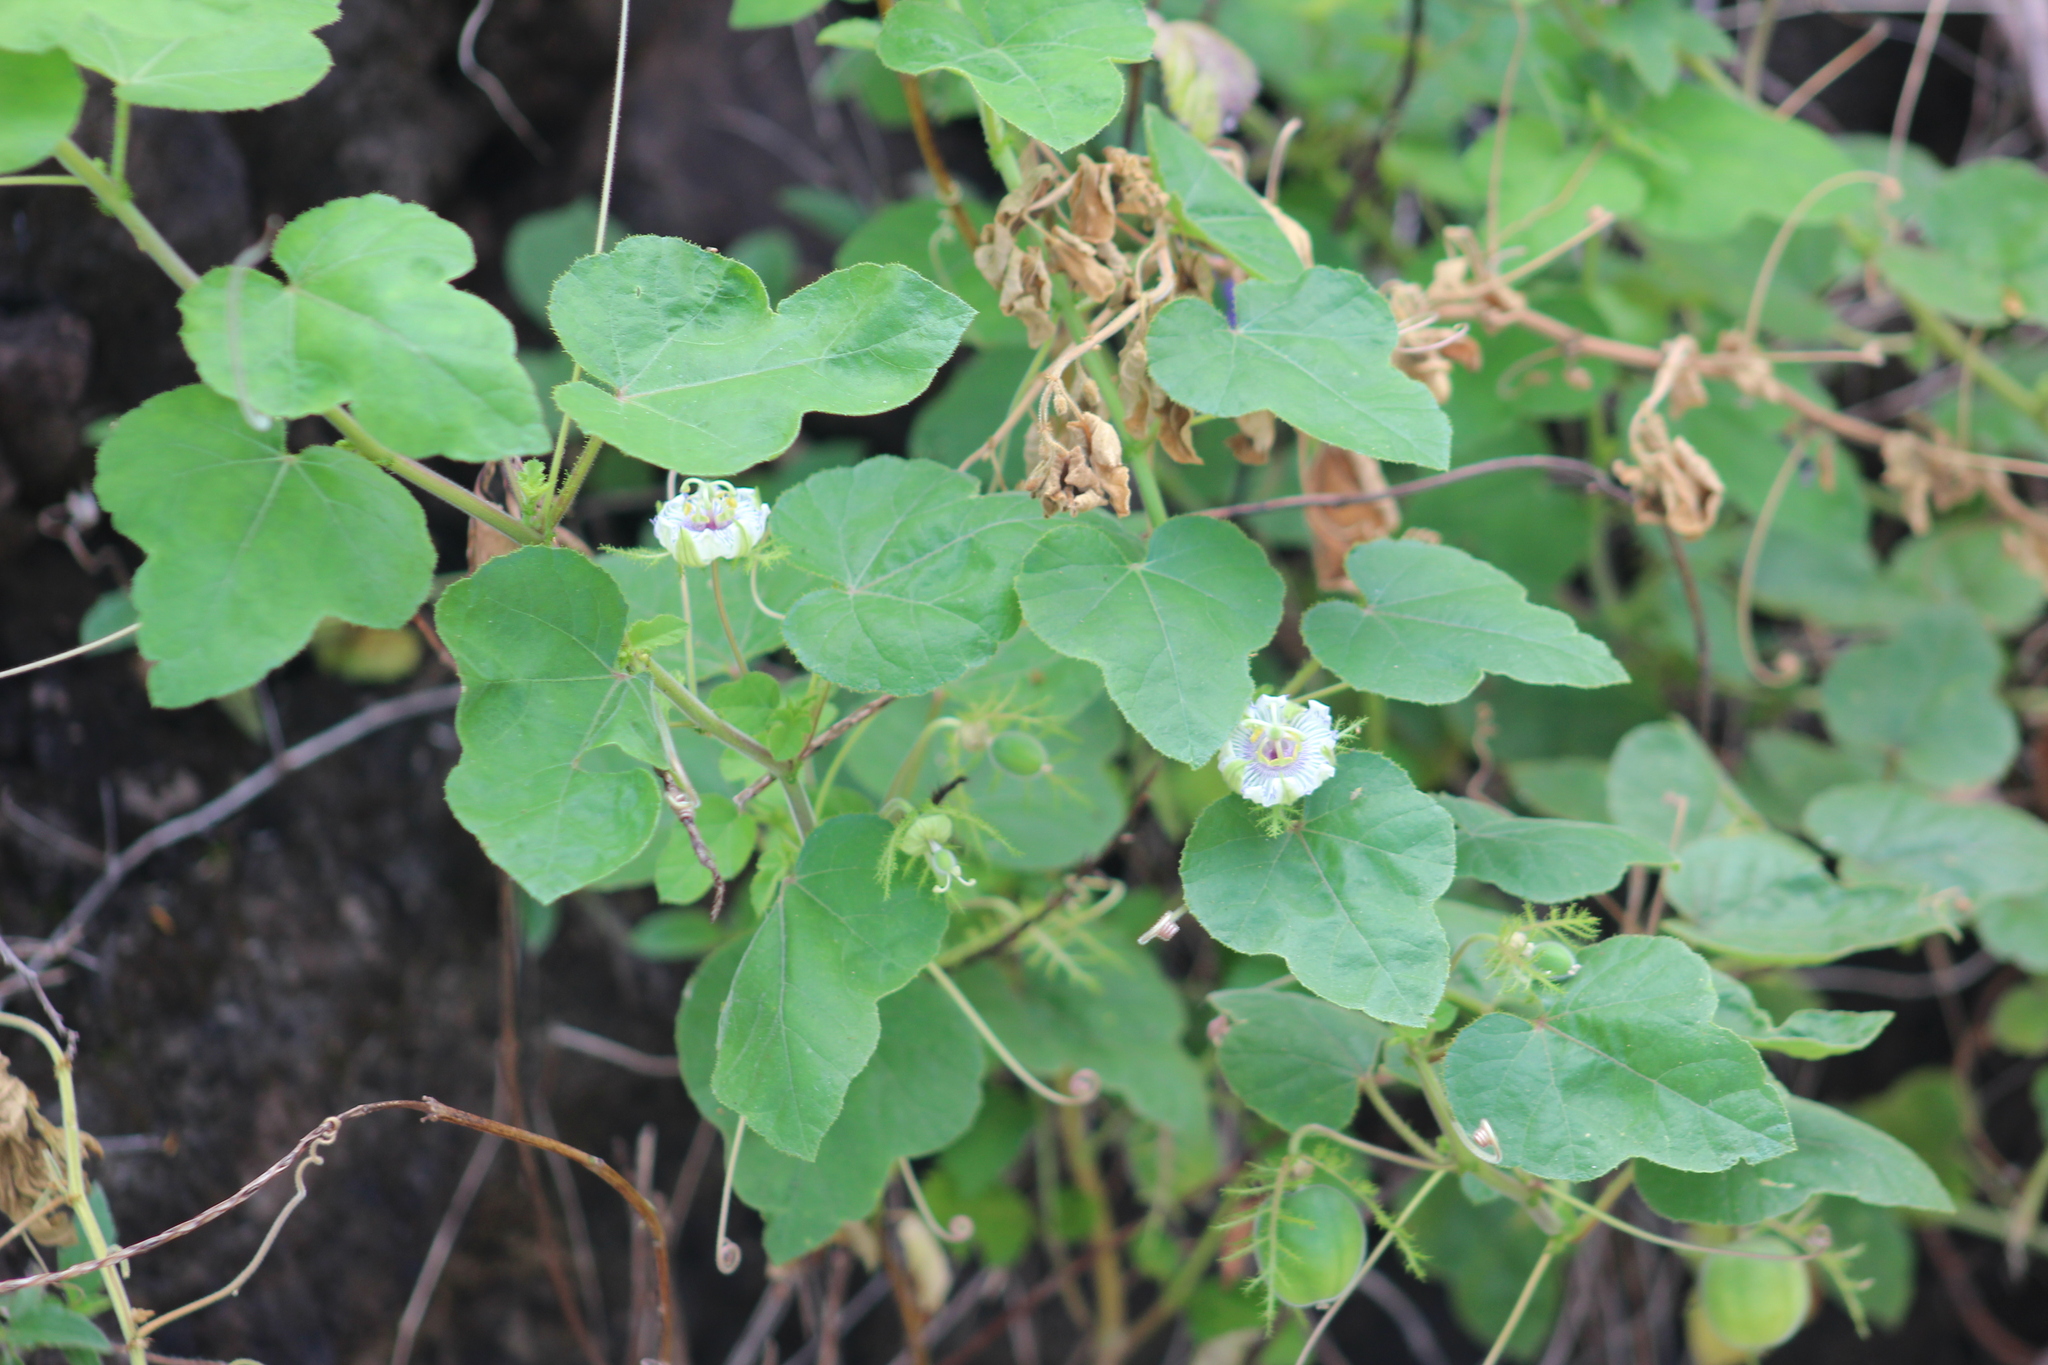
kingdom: Plantae
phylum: Tracheophyta
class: Magnoliopsida
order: Malpighiales
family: Passifloraceae
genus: Passiflora
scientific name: Passiflora foetida
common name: Fetid passionflower
